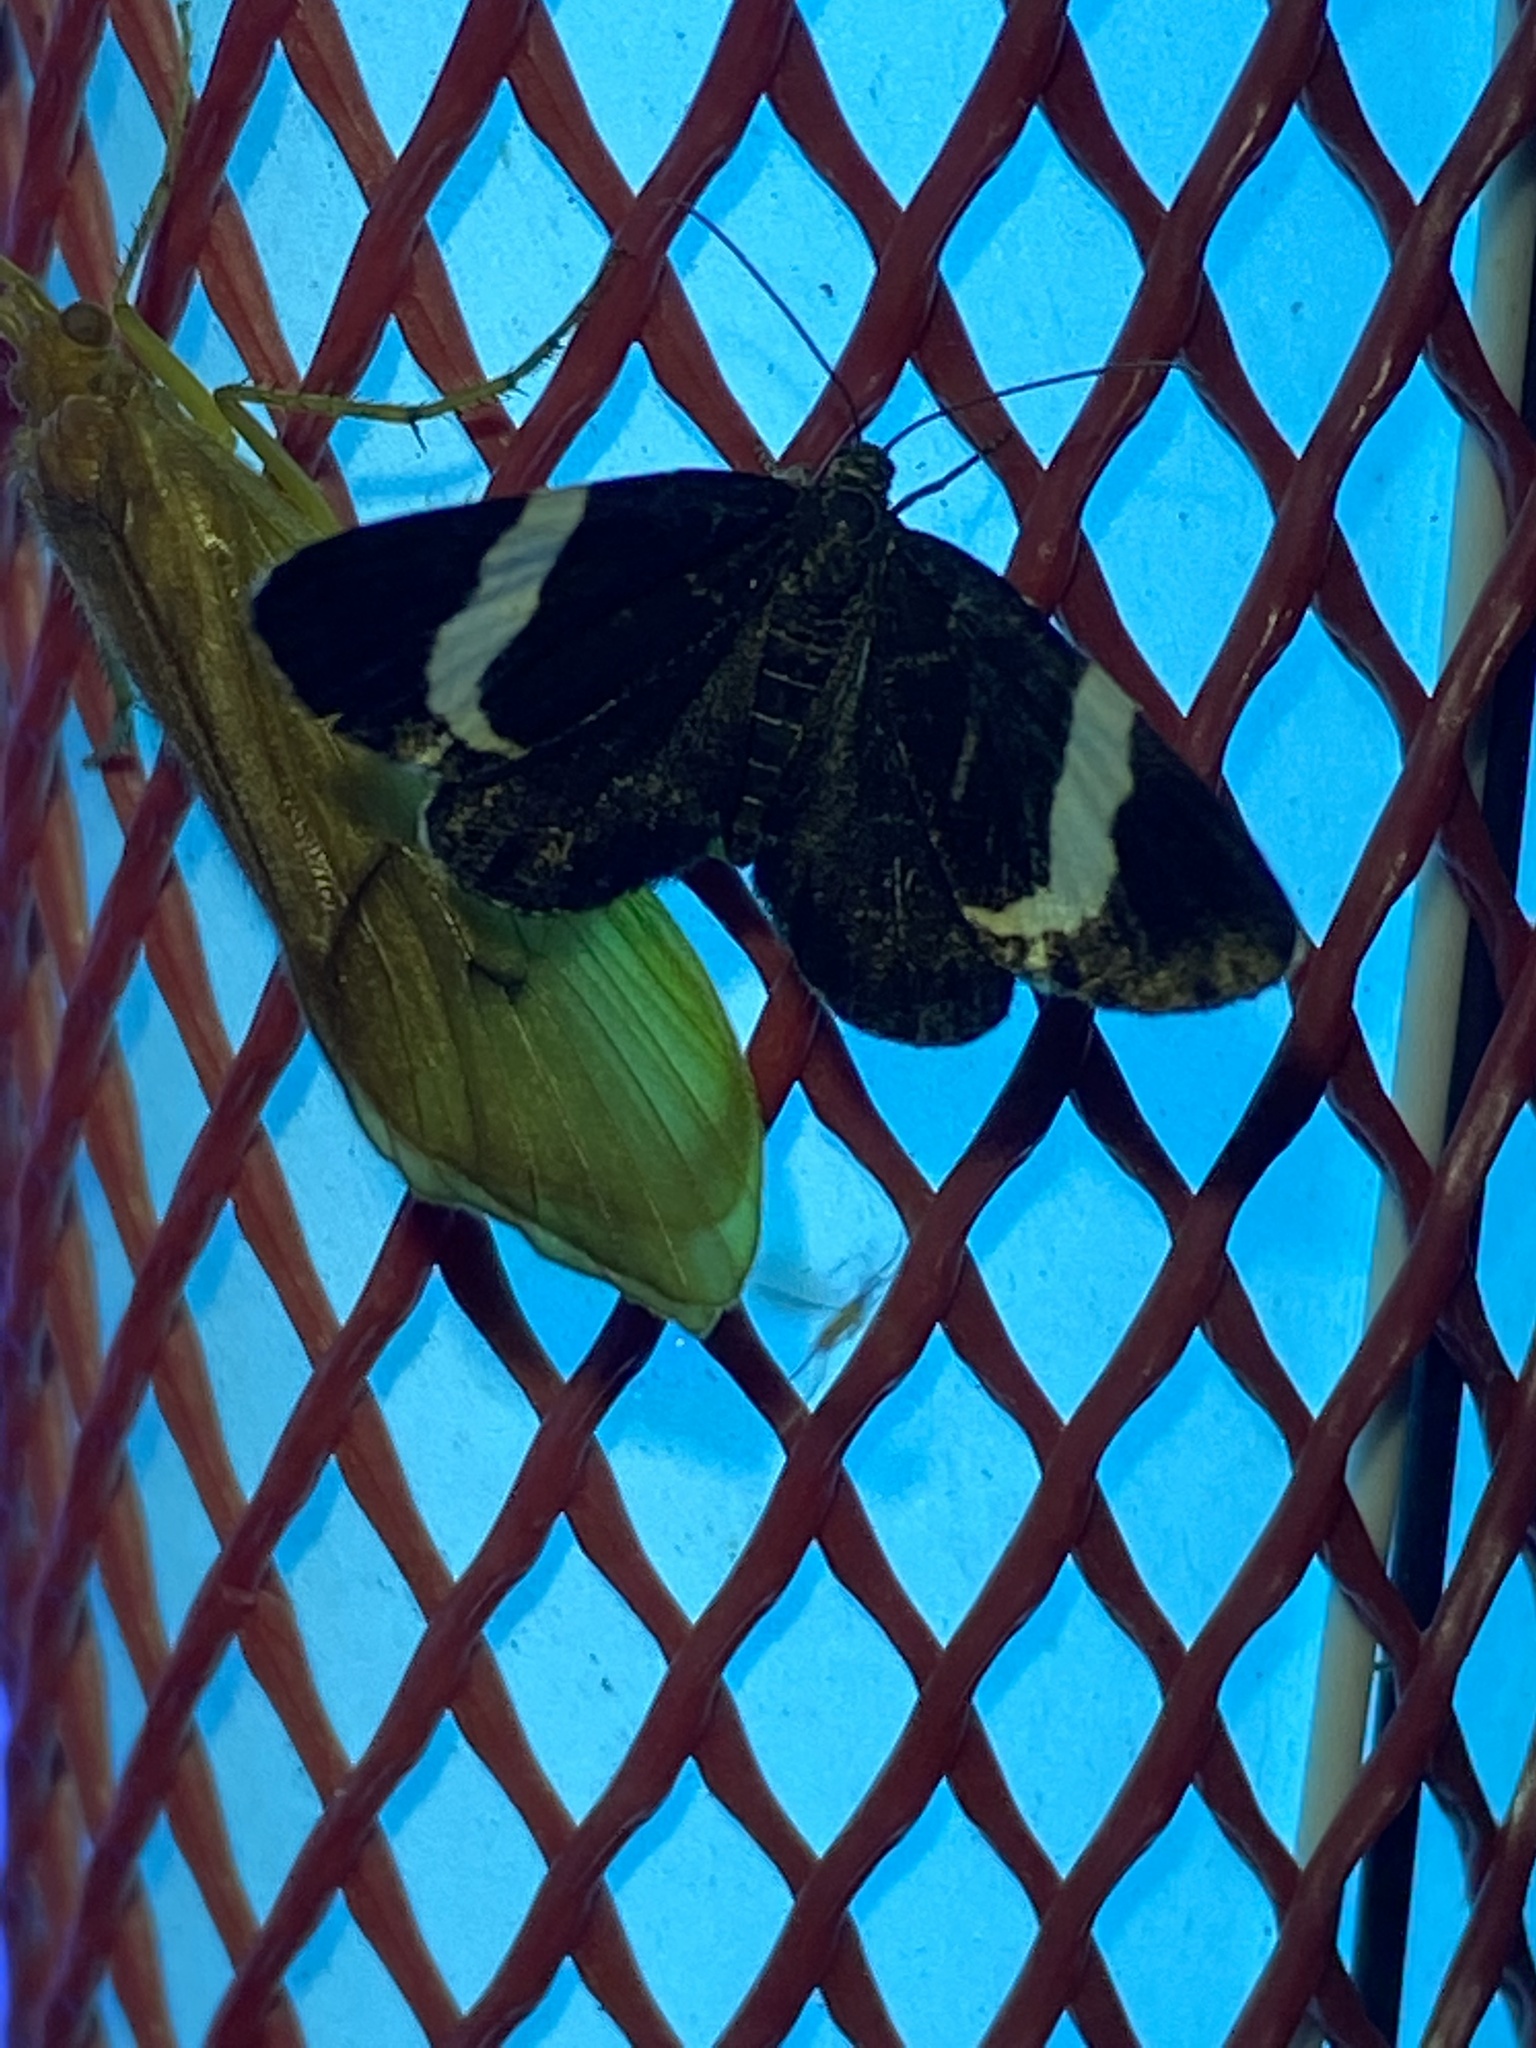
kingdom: Animalia
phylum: Arthropoda
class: Insecta
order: Lepidoptera
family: Geometridae
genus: Trichodezia
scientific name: Trichodezia albovittata
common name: White striped black
